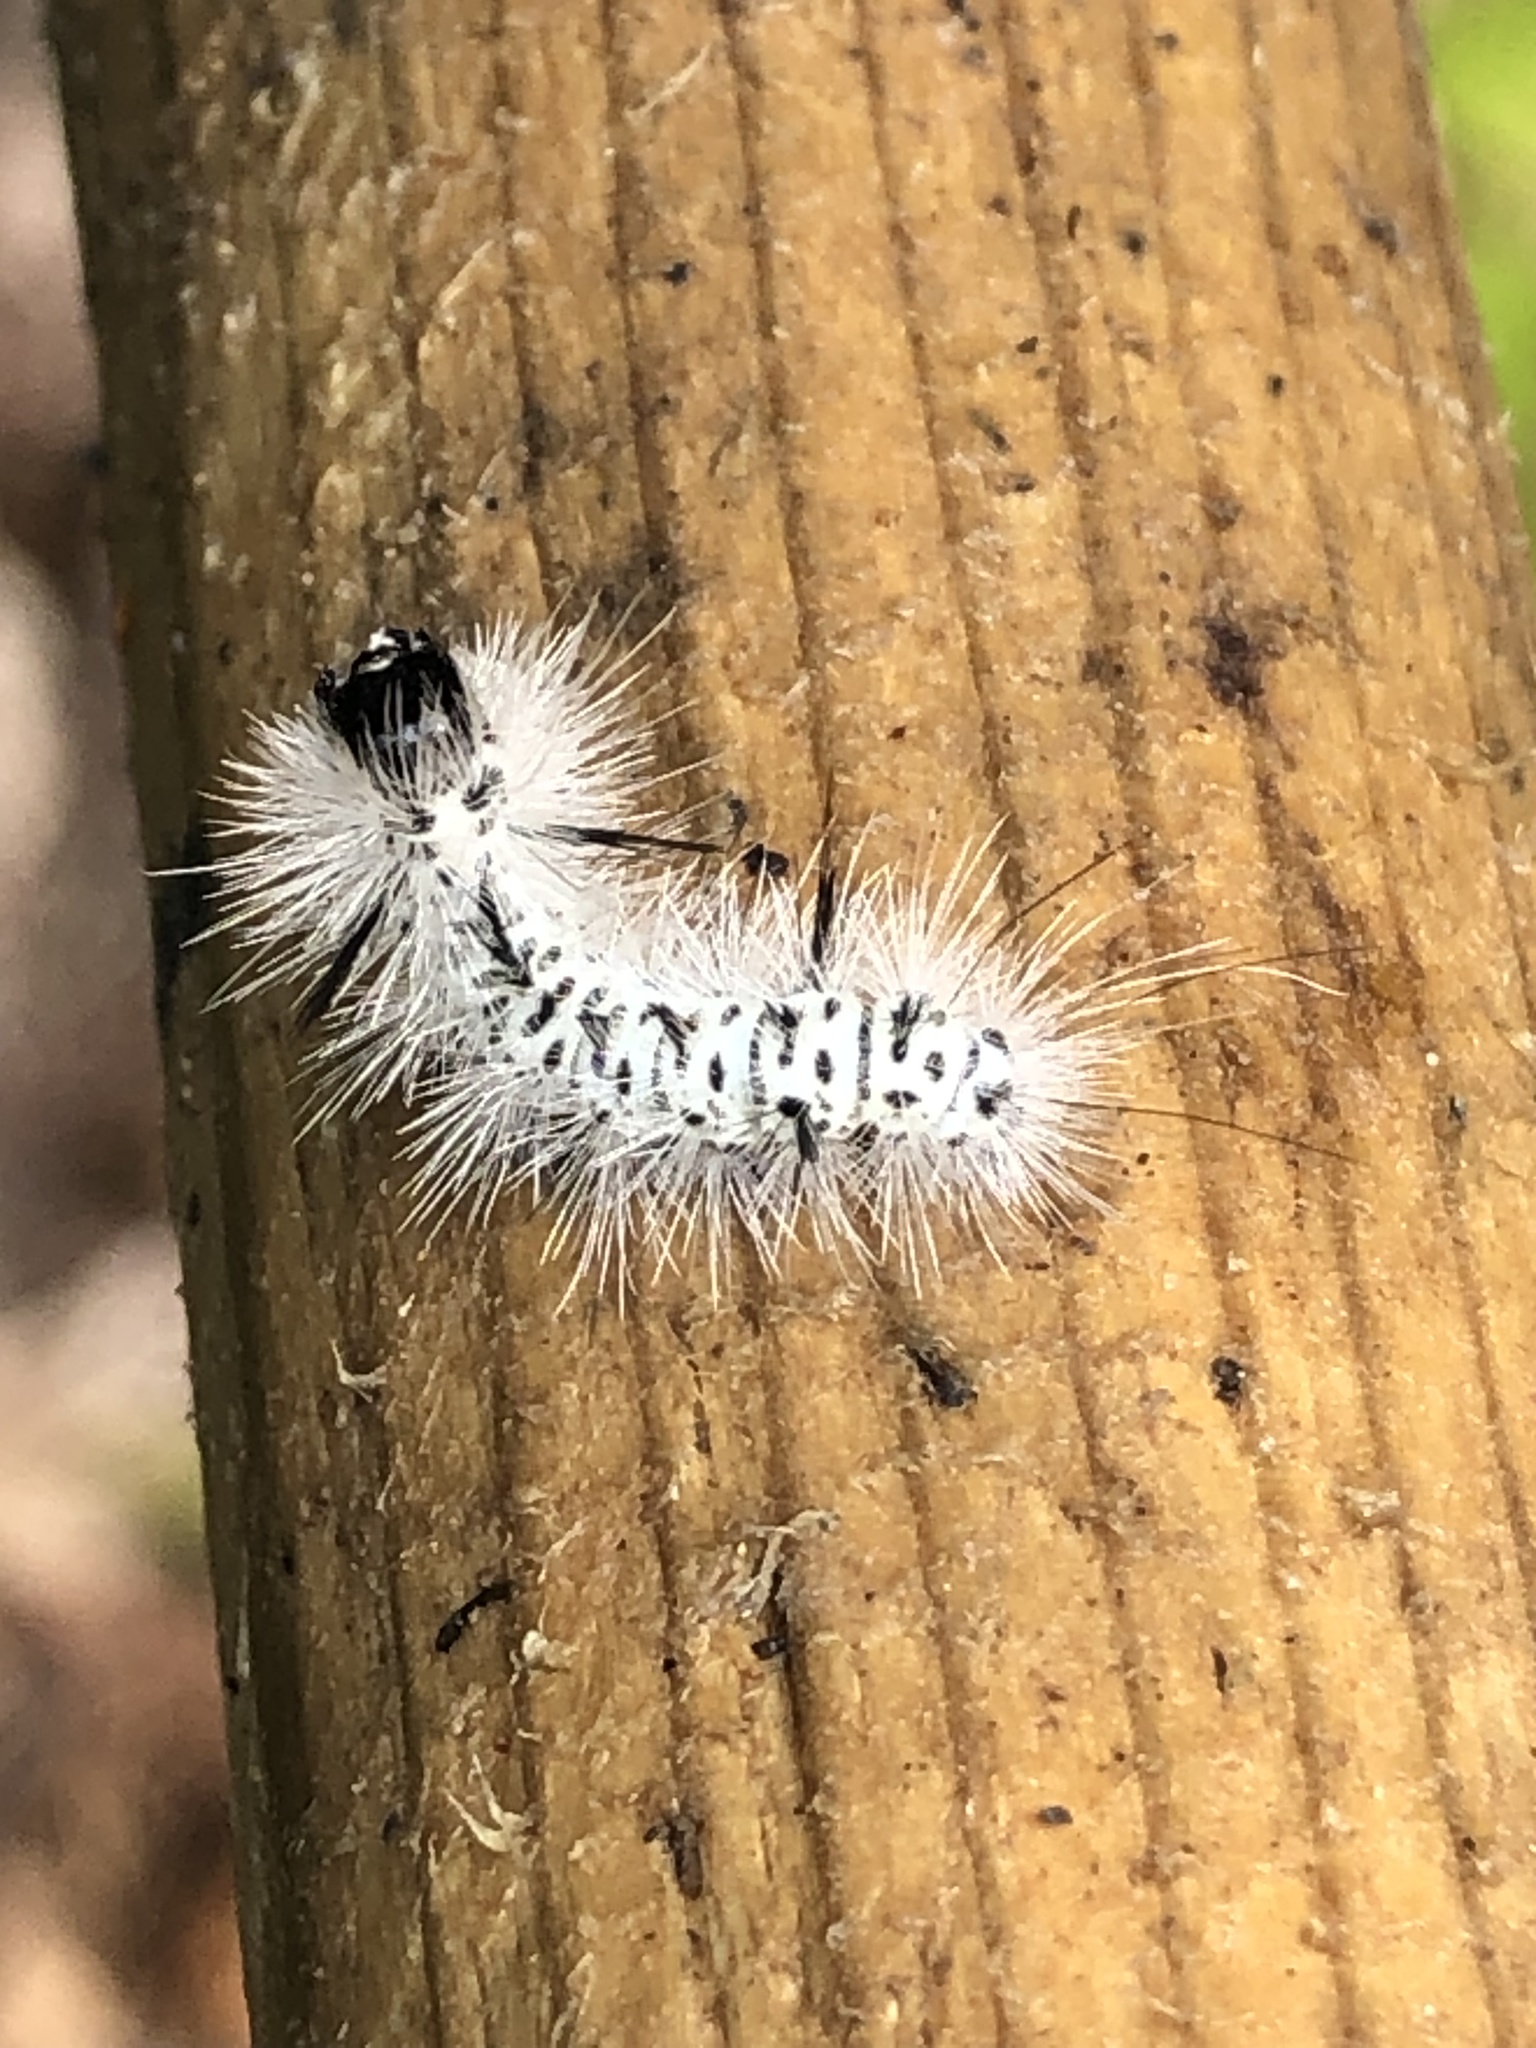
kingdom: Animalia
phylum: Arthropoda
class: Insecta
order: Lepidoptera
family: Erebidae
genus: Lophocampa
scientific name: Lophocampa caryae
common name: Hickory tussock moth
